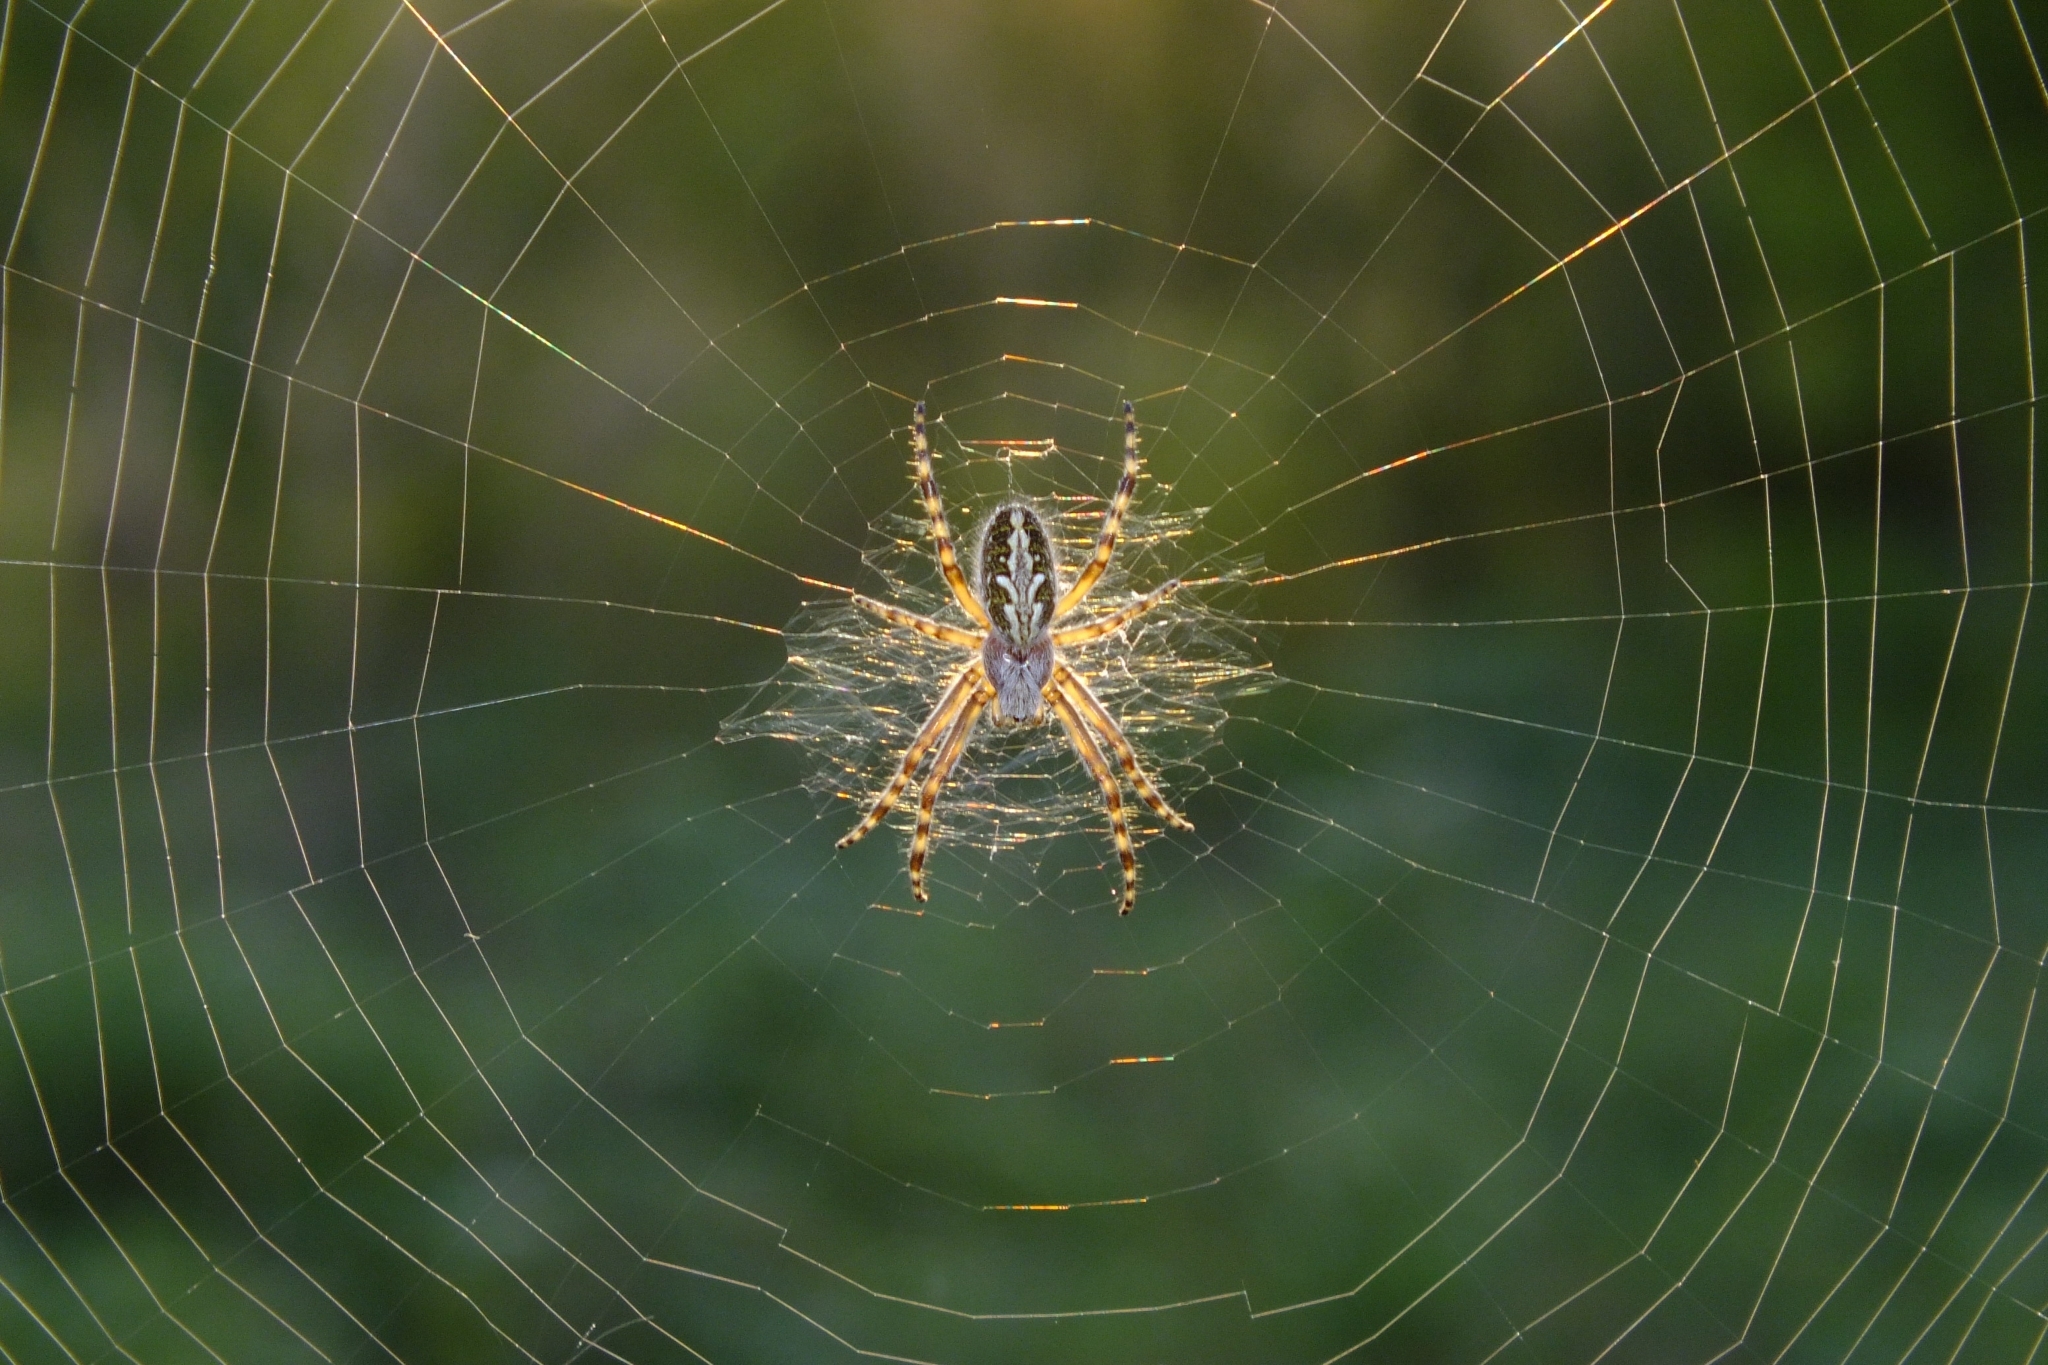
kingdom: Animalia
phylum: Arthropoda
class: Arachnida
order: Araneae
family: Araneidae
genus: Aculepeira
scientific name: Aculepeira ceropegia
